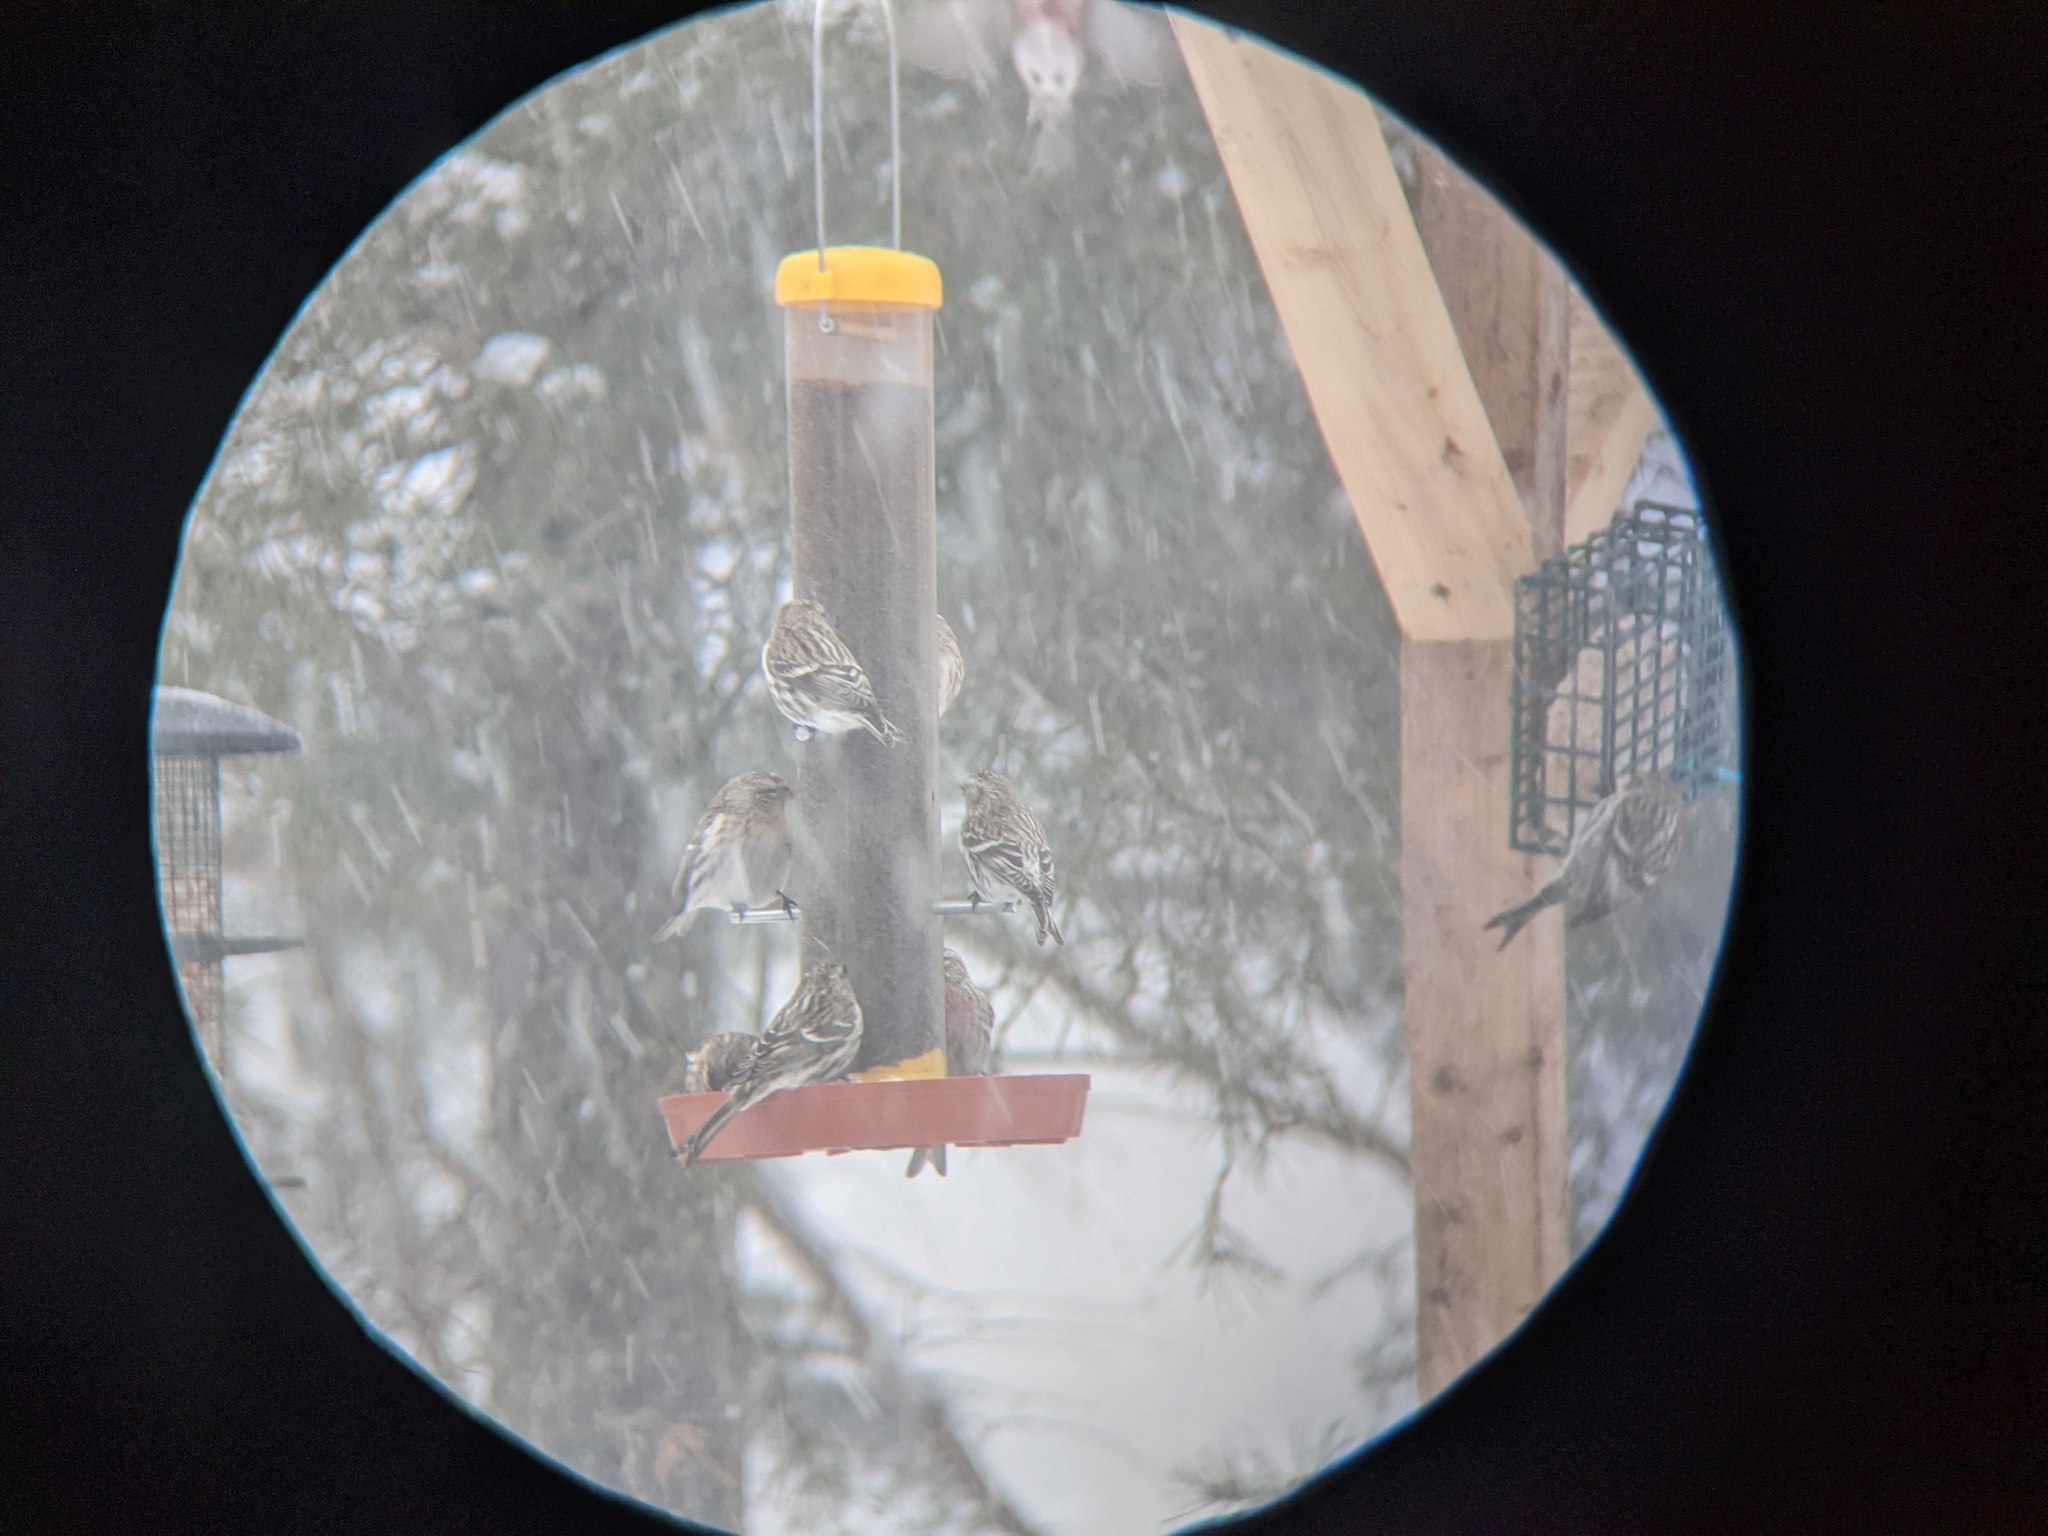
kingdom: Animalia
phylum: Chordata
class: Aves
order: Passeriformes
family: Fringillidae
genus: Acanthis
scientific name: Acanthis flammea
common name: Common redpoll
